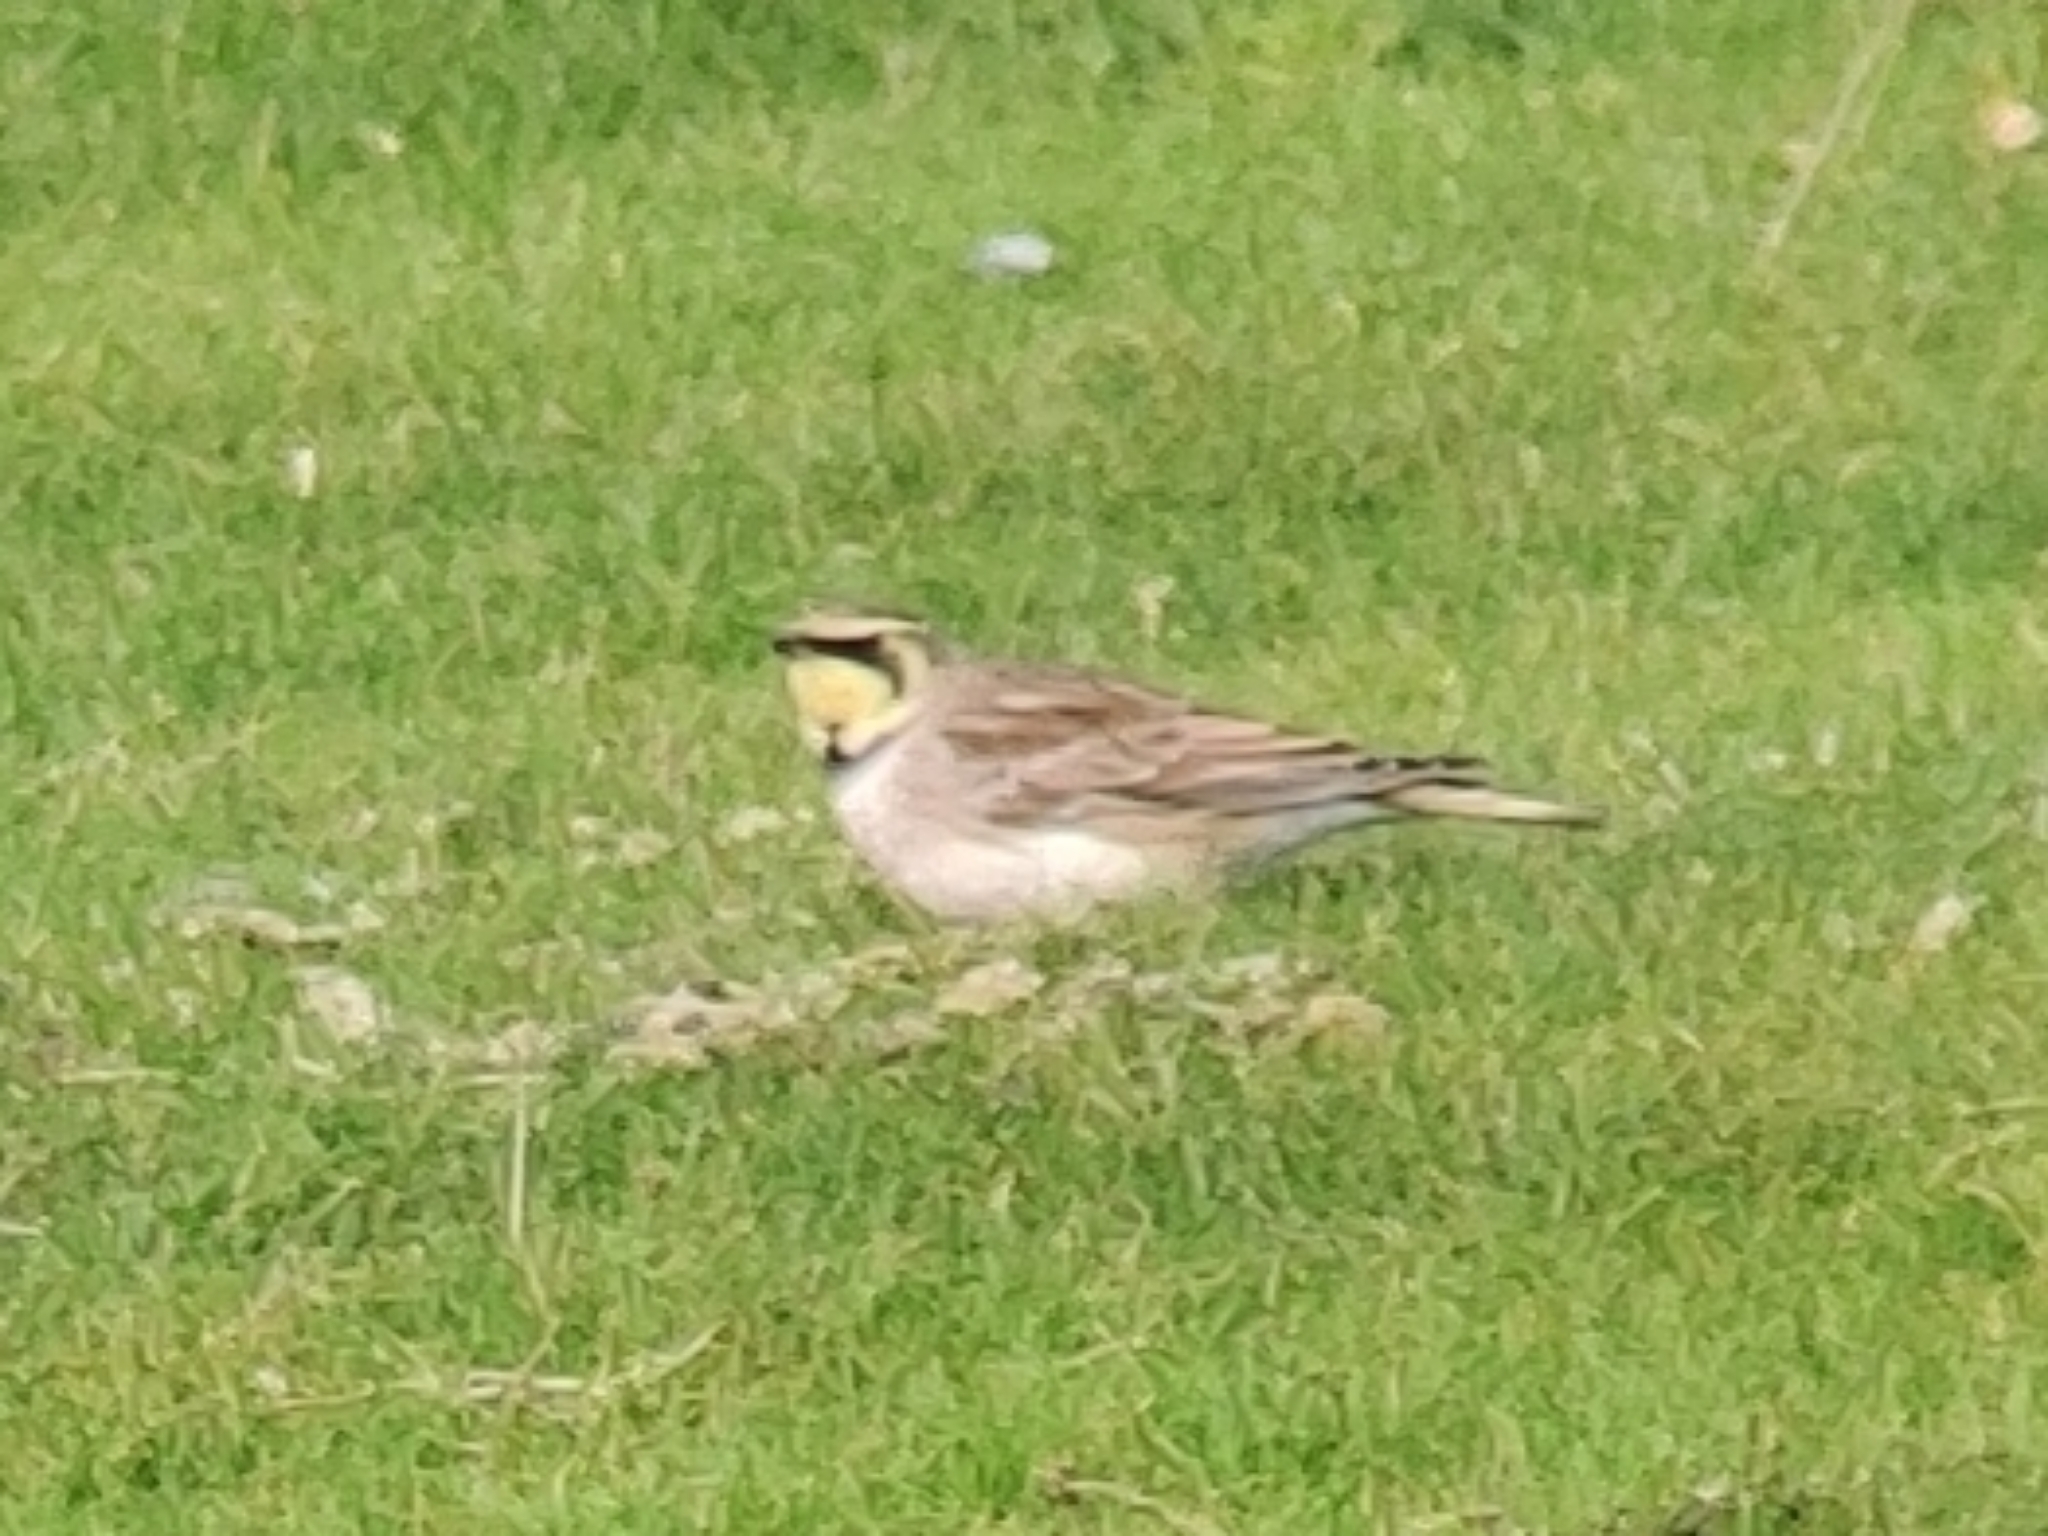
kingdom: Animalia
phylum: Chordata
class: Aves
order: Passeriformes
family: Alaudidae
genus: Eremophila
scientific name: Eremophila alpestris
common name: Horned lark
